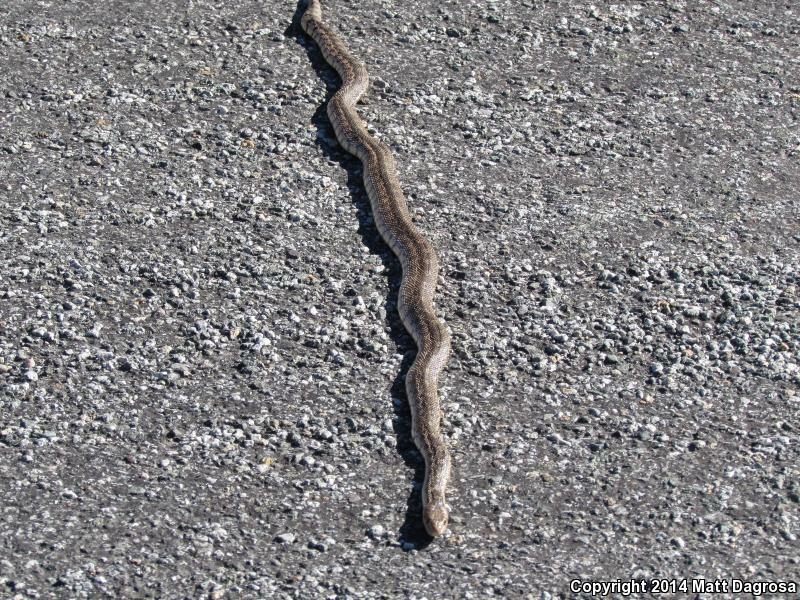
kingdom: Animalia
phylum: Chordata
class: Squamata
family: Colubridae
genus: Pituophis
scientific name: Pituophis catenifer
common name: Gopher snake
